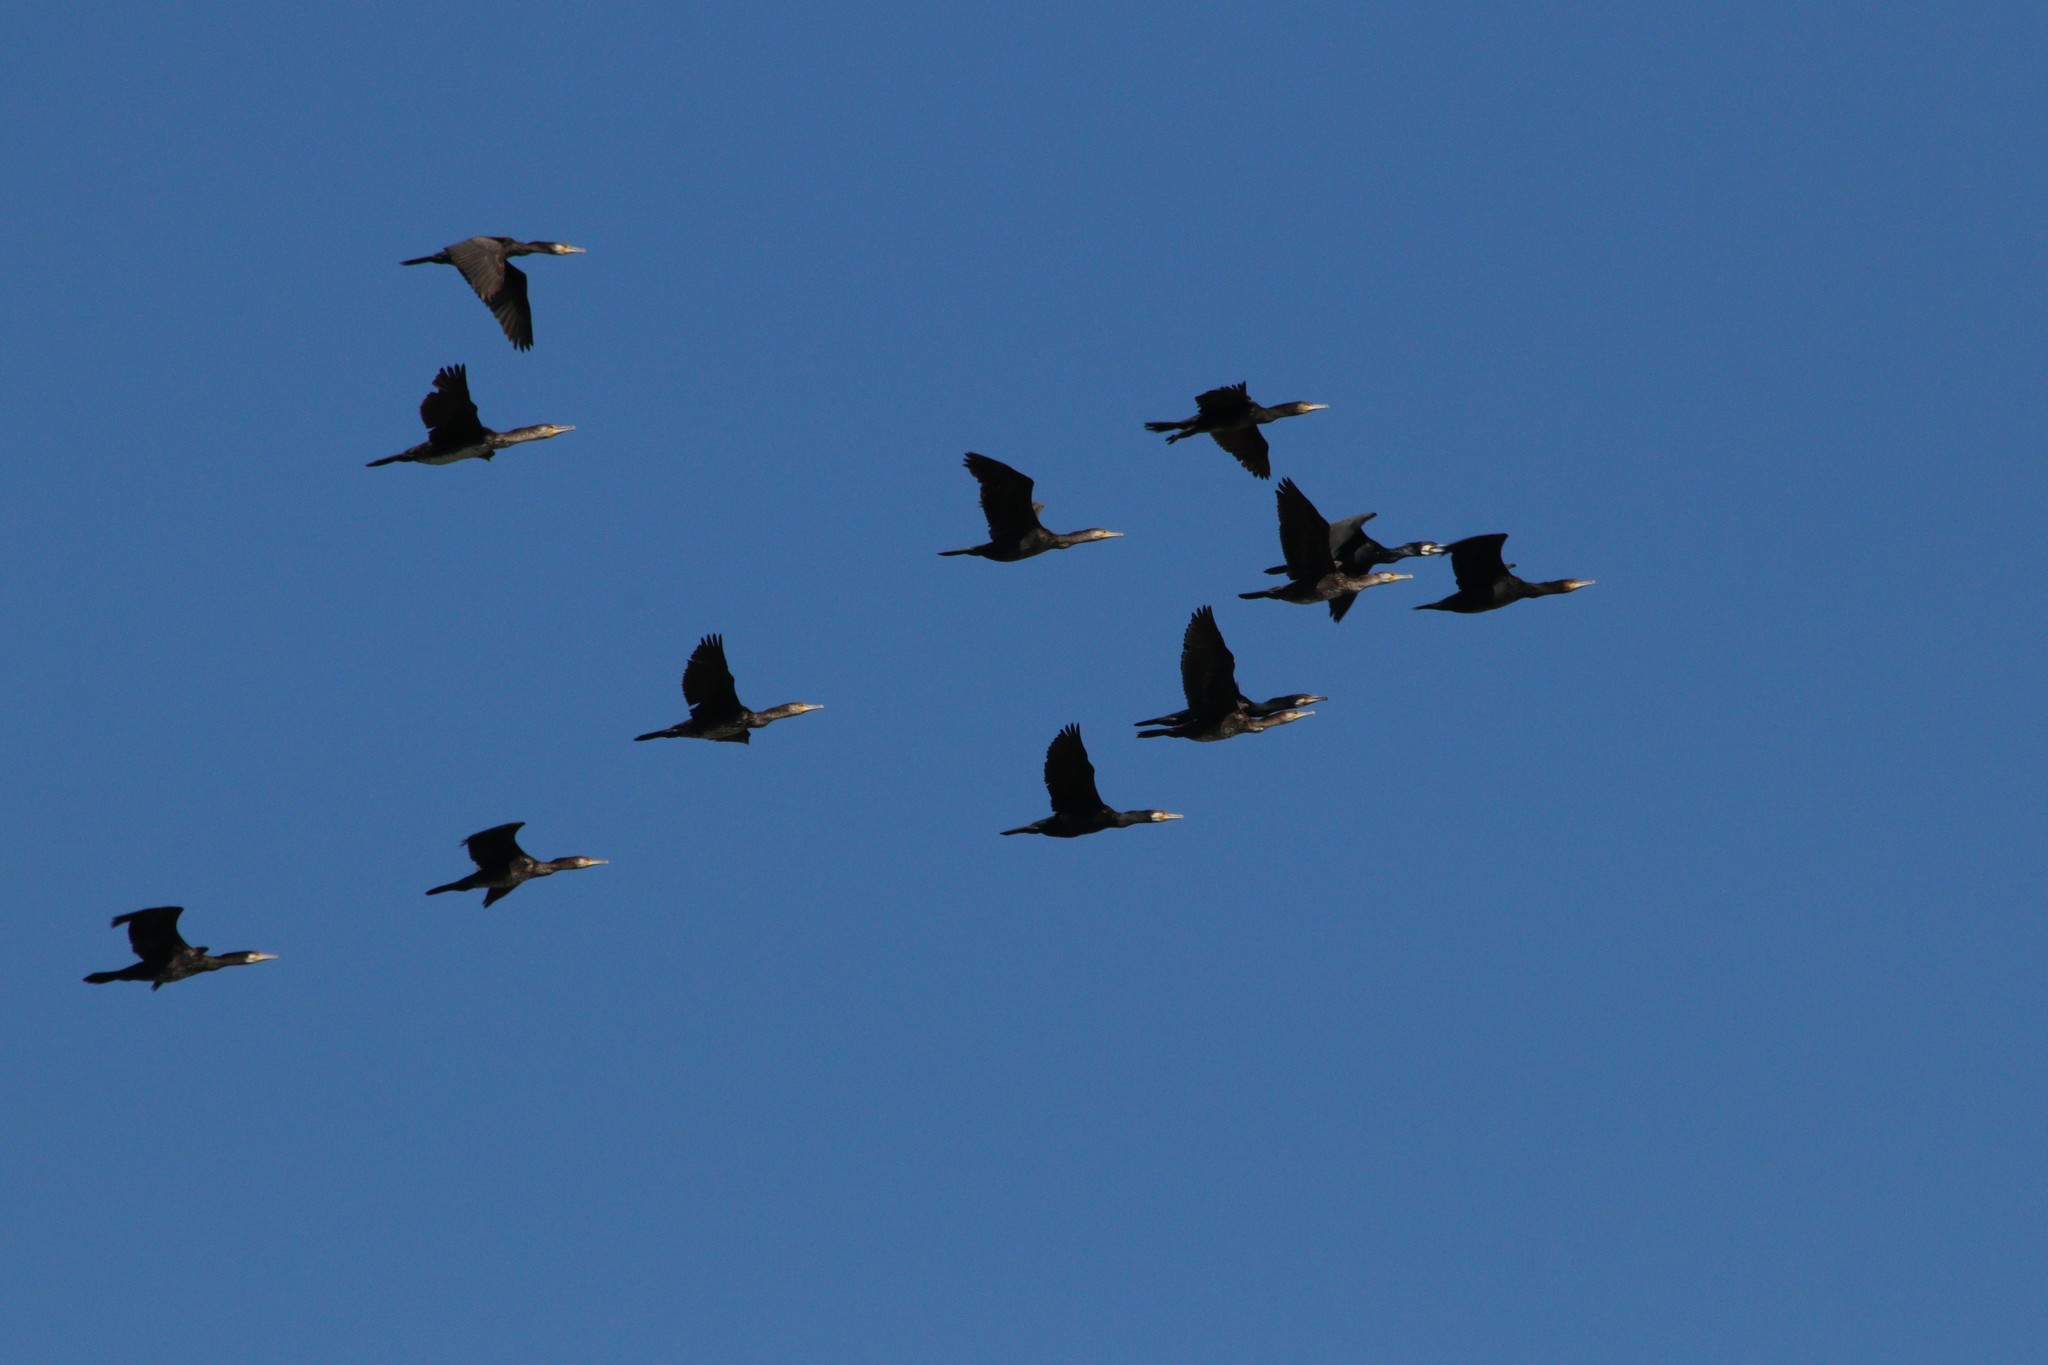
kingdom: Animalia
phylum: Chordata
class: Aves
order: Suliformes
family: Phalacrocoracidae
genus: Phalacrocorax
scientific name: Phalacrocorax carbo
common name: Great cormorant
